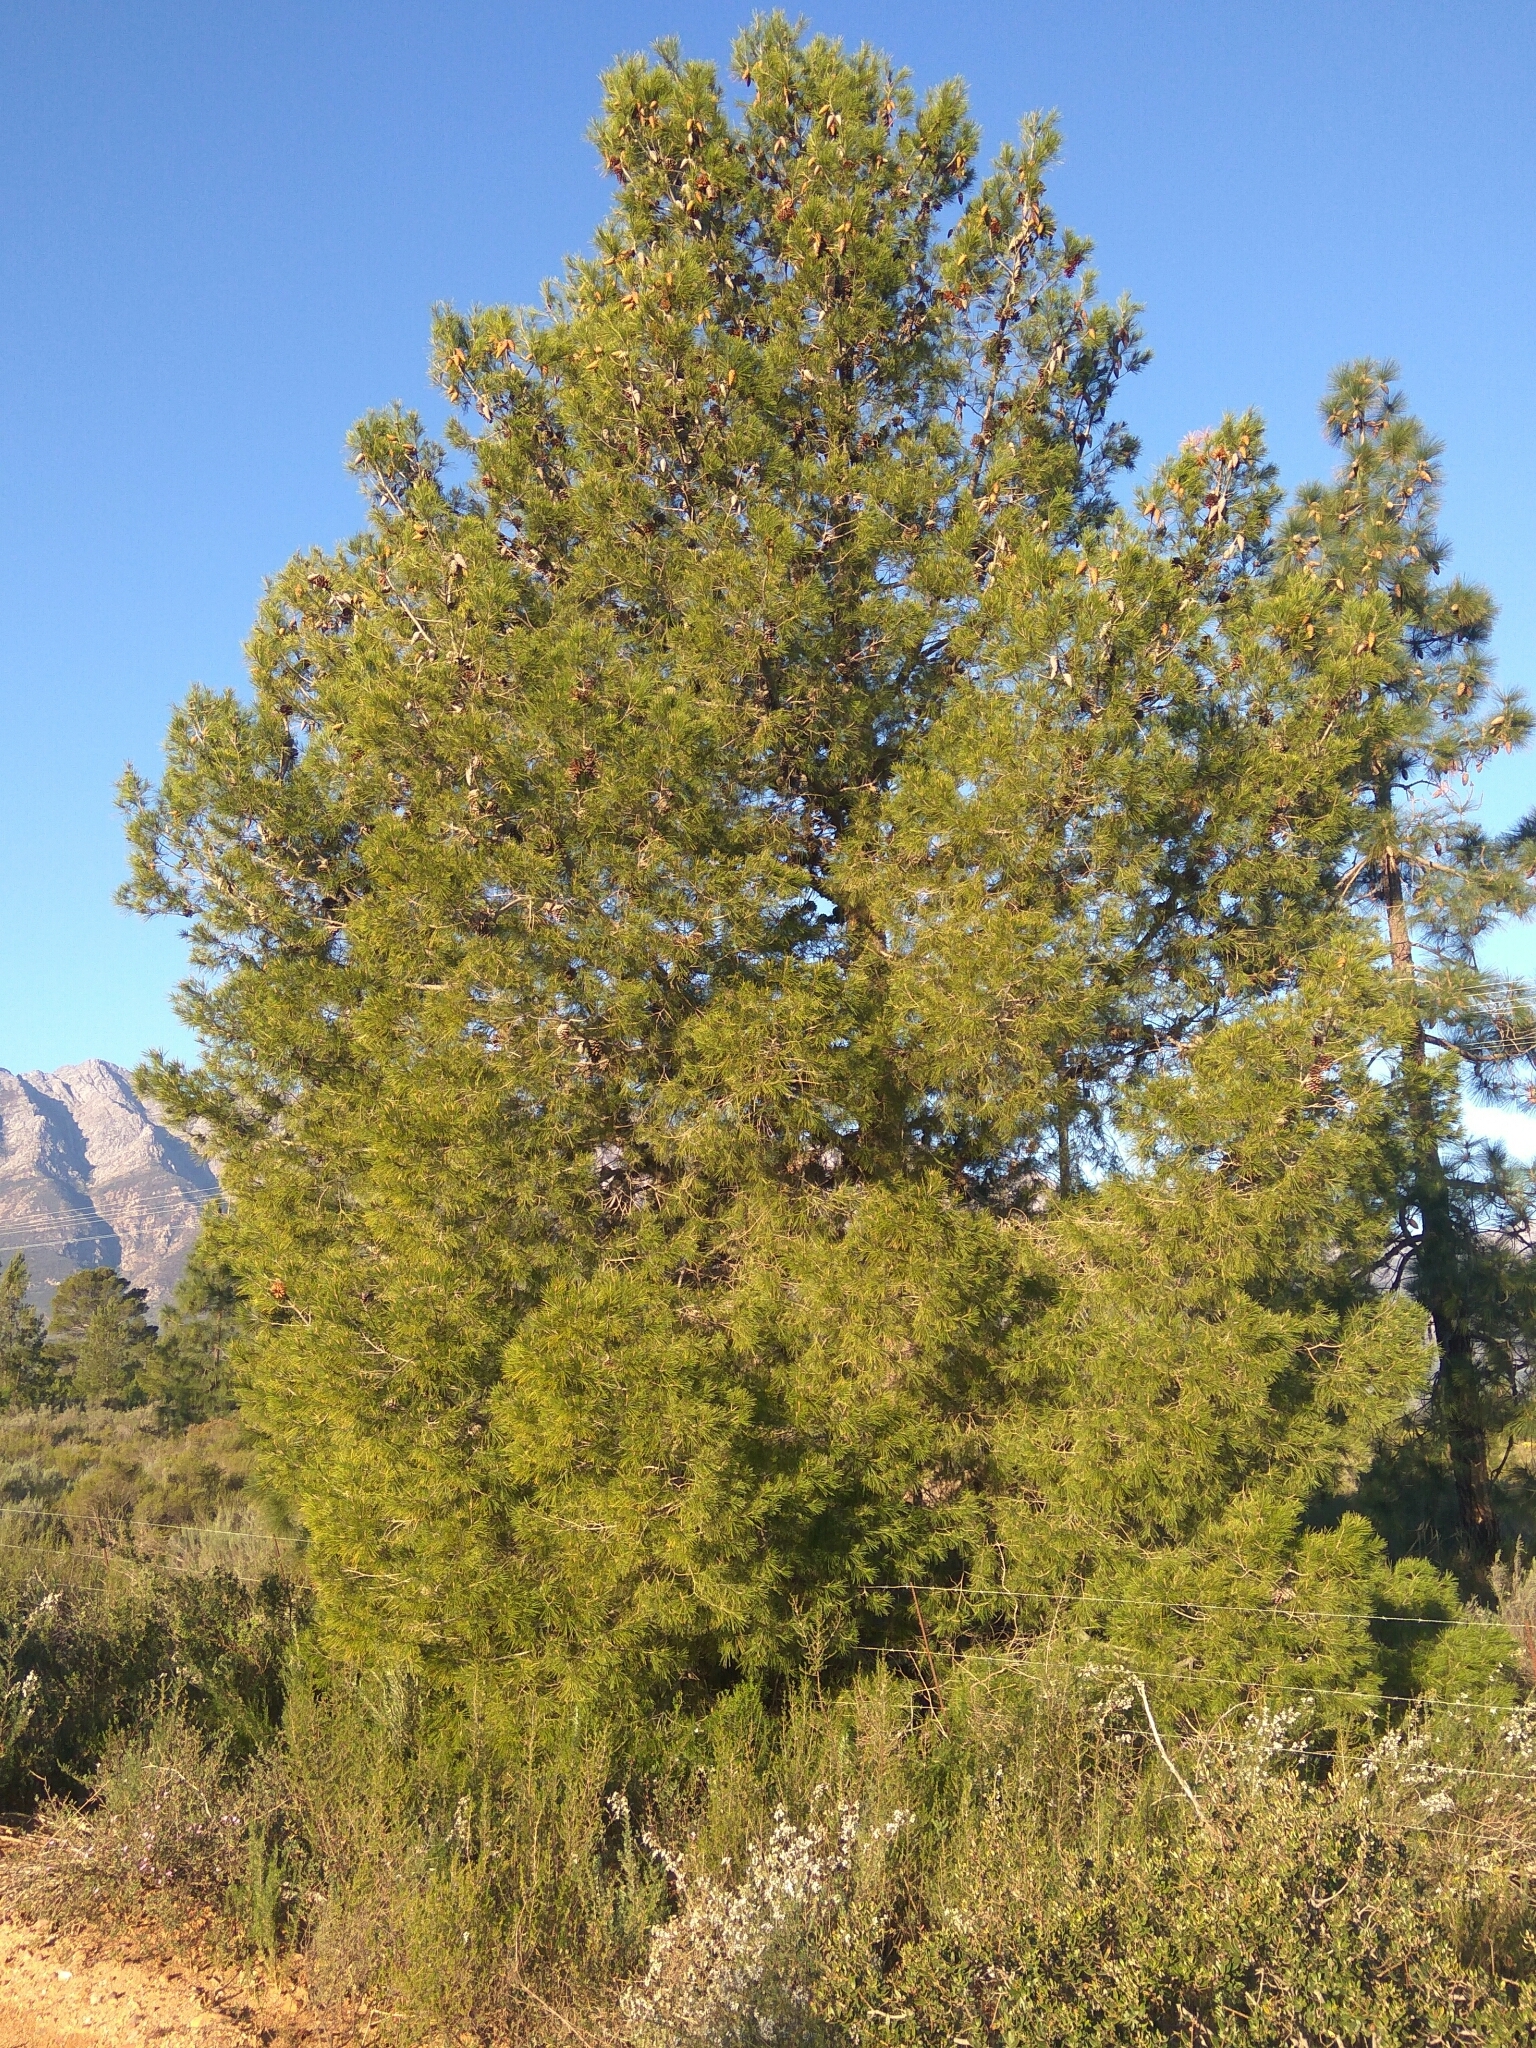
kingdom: Plantae
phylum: Tracheophyta
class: Pinopsida
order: Pinales
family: Pinaceae
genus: Pinus
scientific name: Pinus halepensis
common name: Aleppo pine
